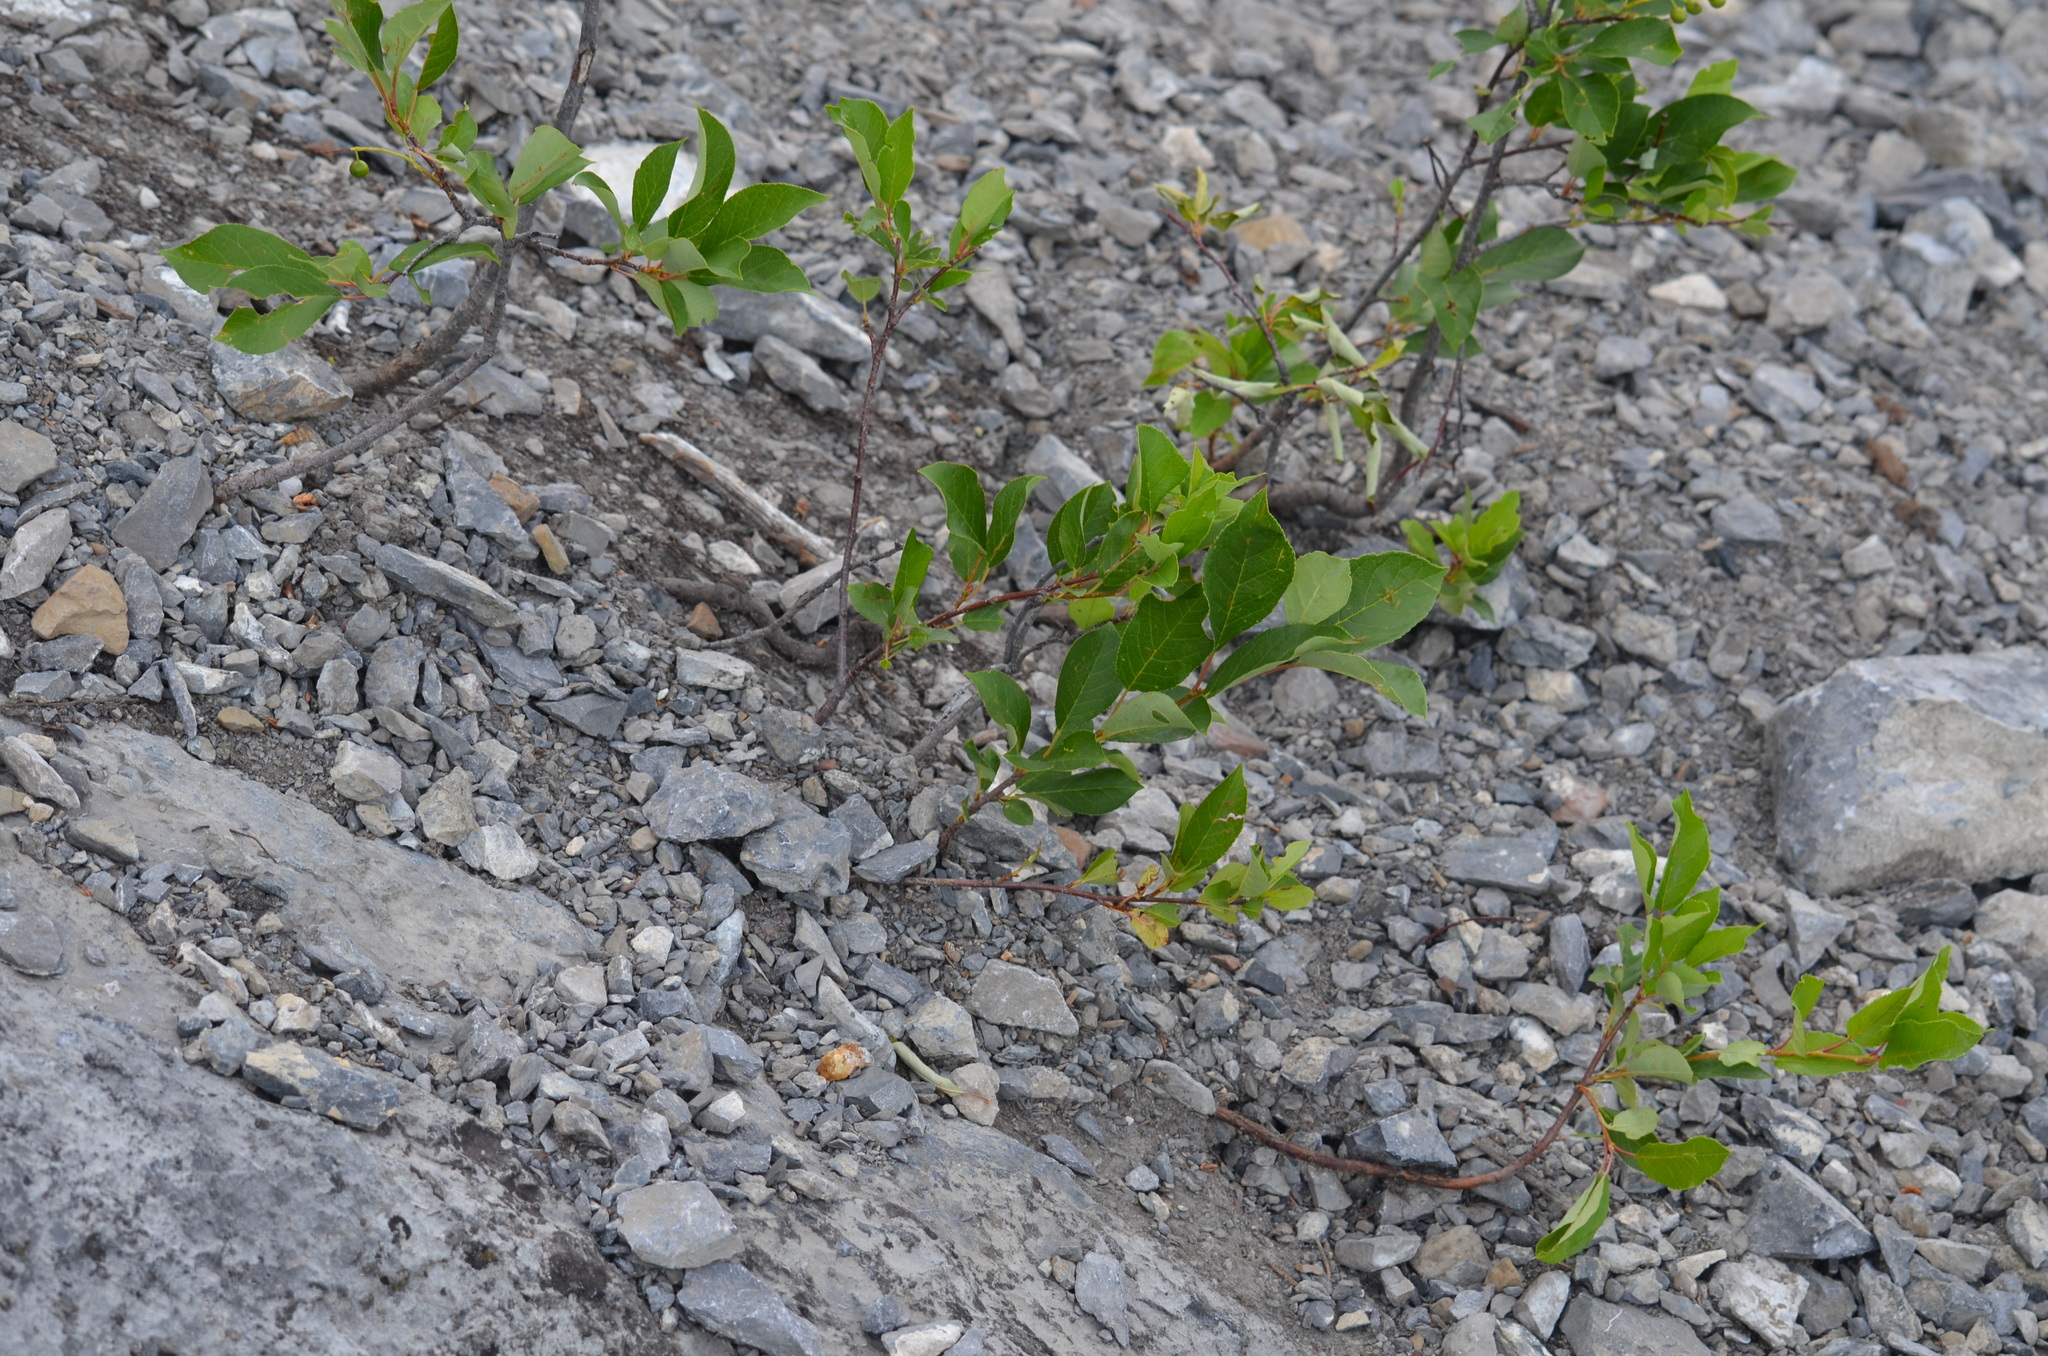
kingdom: Plantae
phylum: Tracheophyta
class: Magnoliopsida
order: Rosales
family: Rosaceae
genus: Prunus
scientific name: Prunus virginiana
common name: Chokecherry
